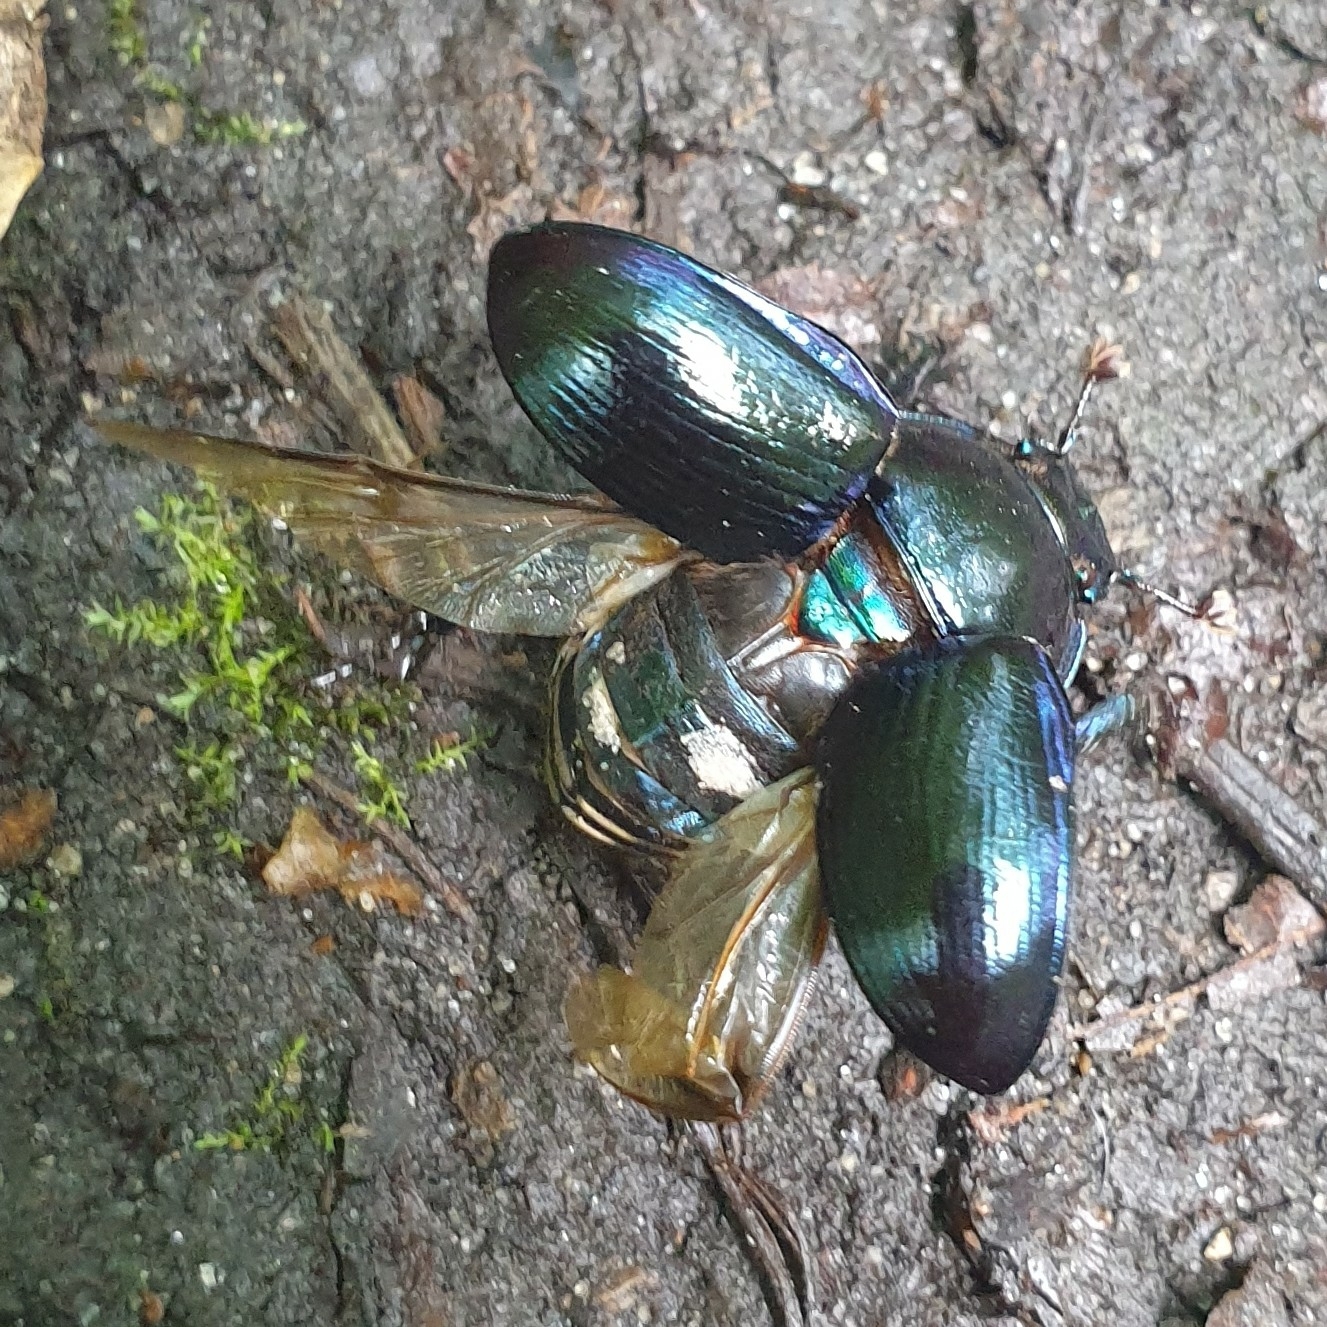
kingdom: Animalia
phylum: Arthropoda
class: Insecta
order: Coleoptera
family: Geotrupidae
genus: Anoplotrupes
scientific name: Anoplotrupes stercorosus
